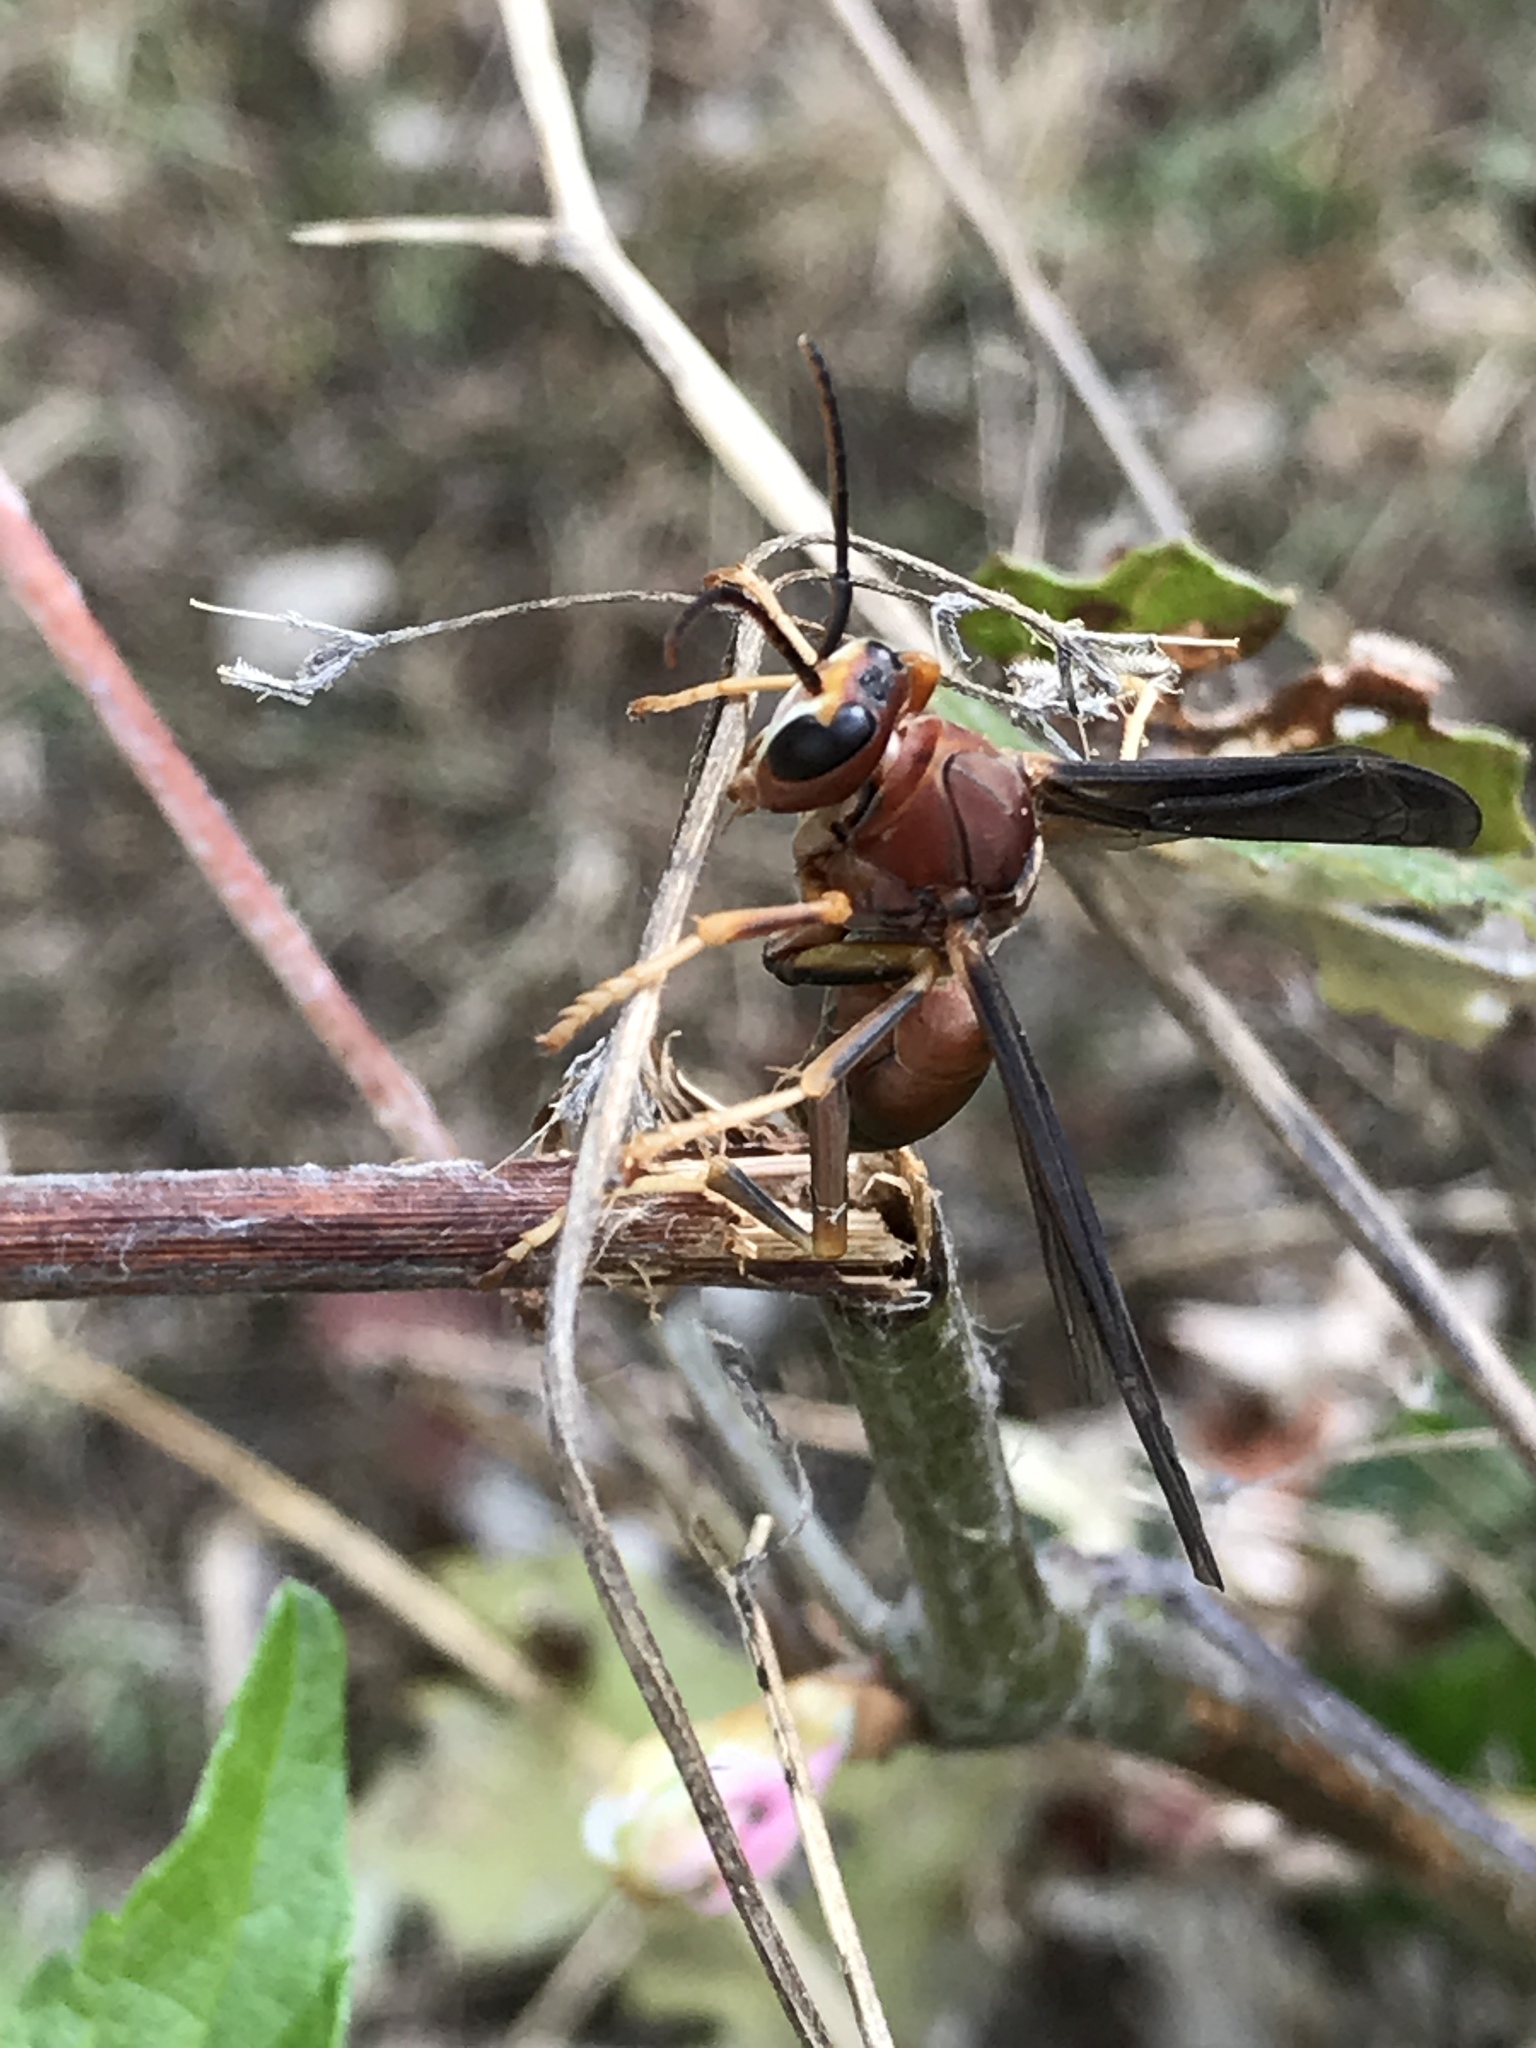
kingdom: Animalia
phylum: Arthropoda
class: Insecta
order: Hymenoptera
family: Eumenidae
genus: Polistes
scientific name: Polistes metricus
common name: Metric paper wasp
